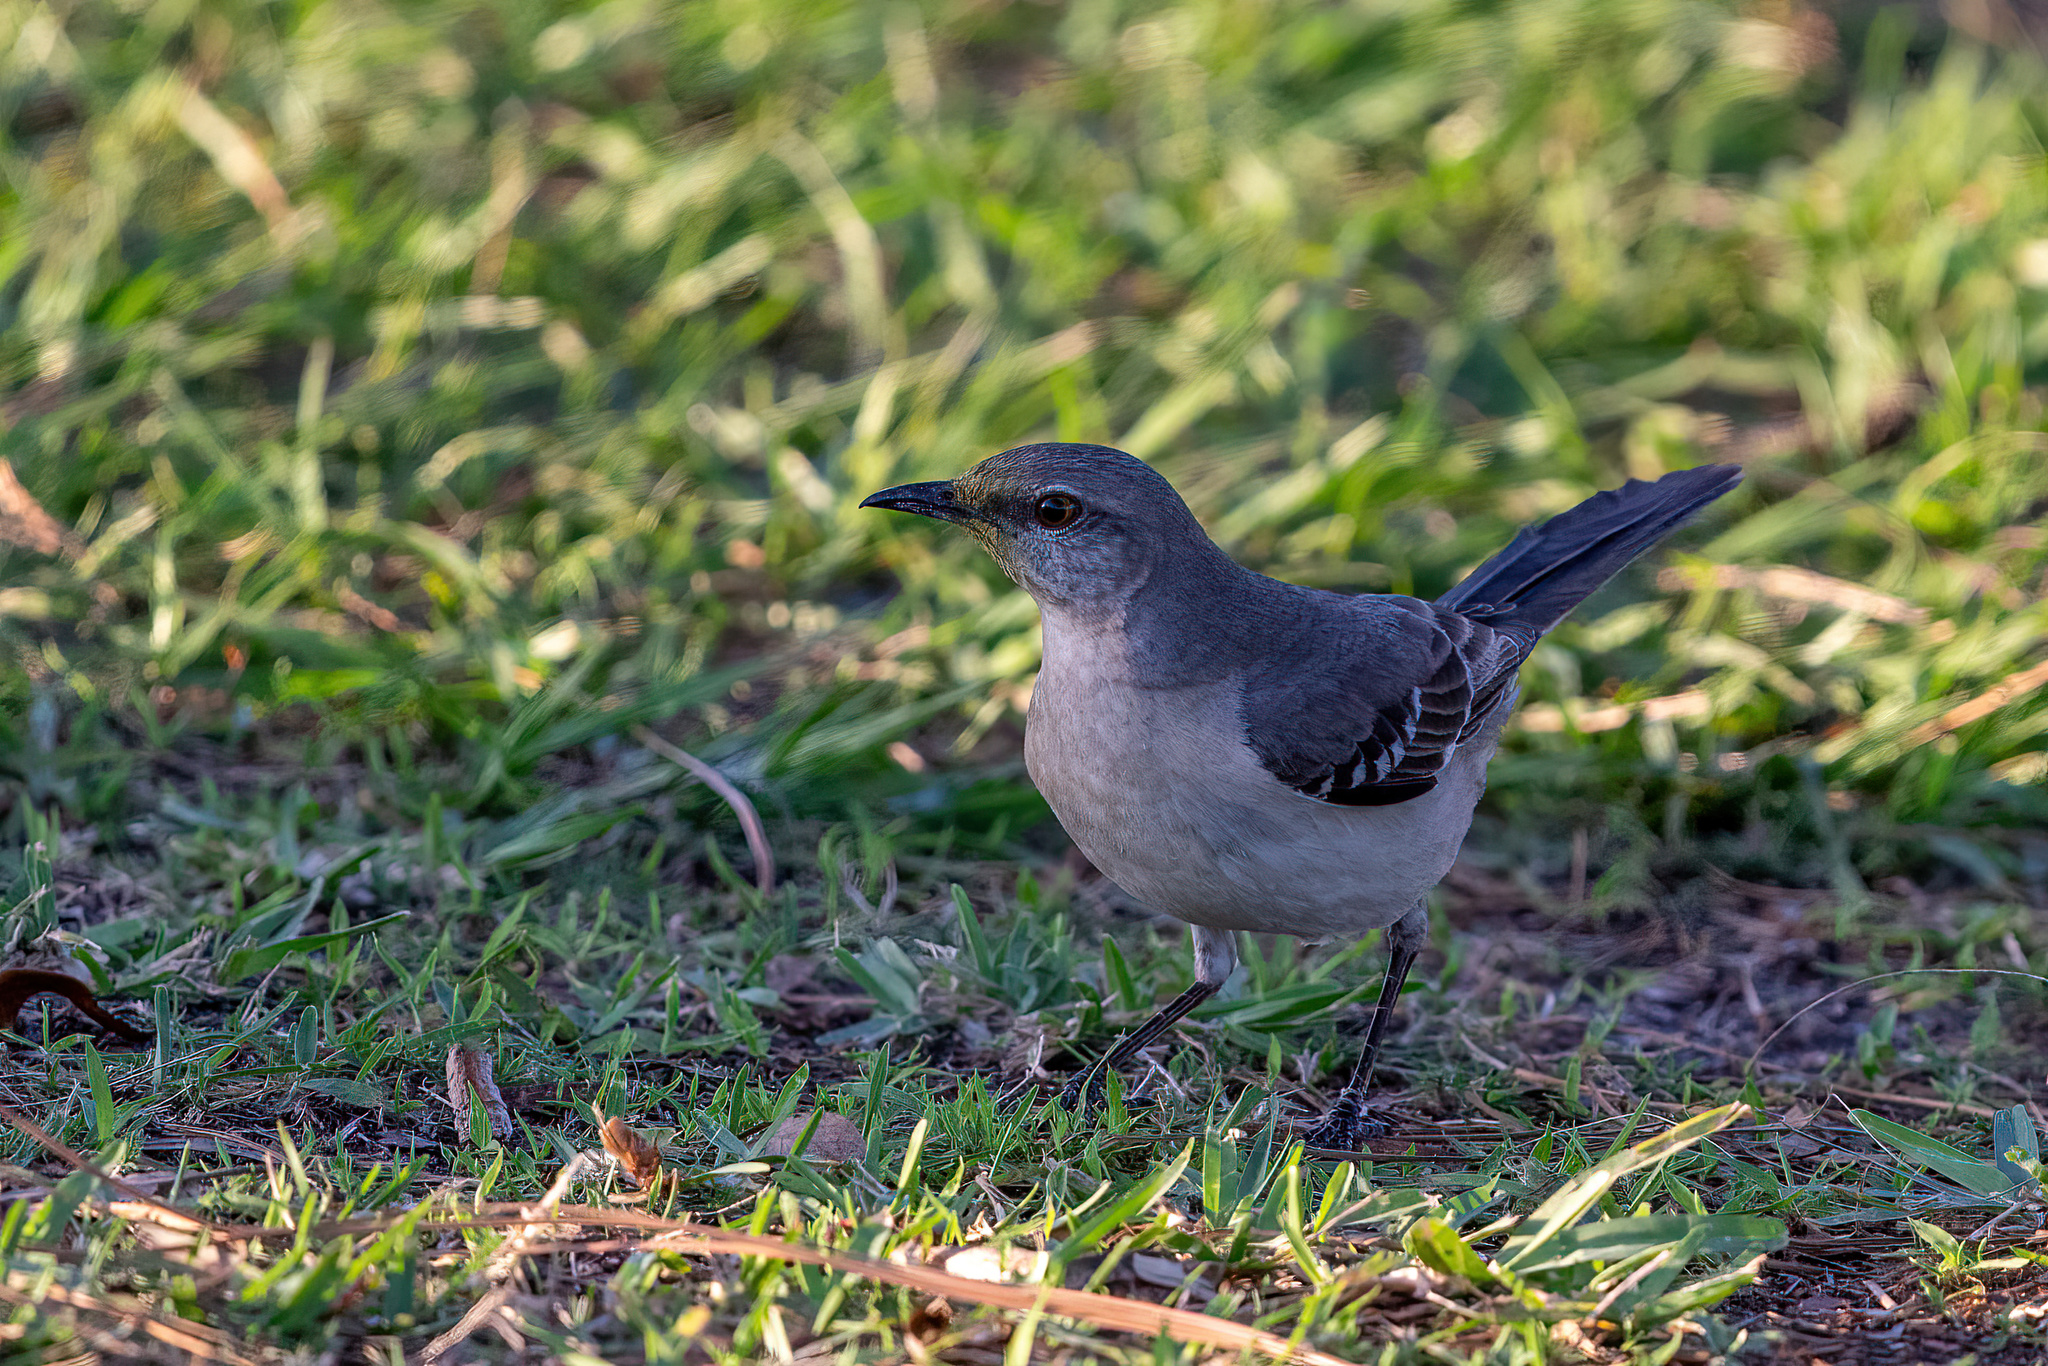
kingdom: Animalia
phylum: Chordata
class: Aves
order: Passeriformes
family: Mimidae
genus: Mimus
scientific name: Mimus polyglottos
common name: Northern mockingbird
